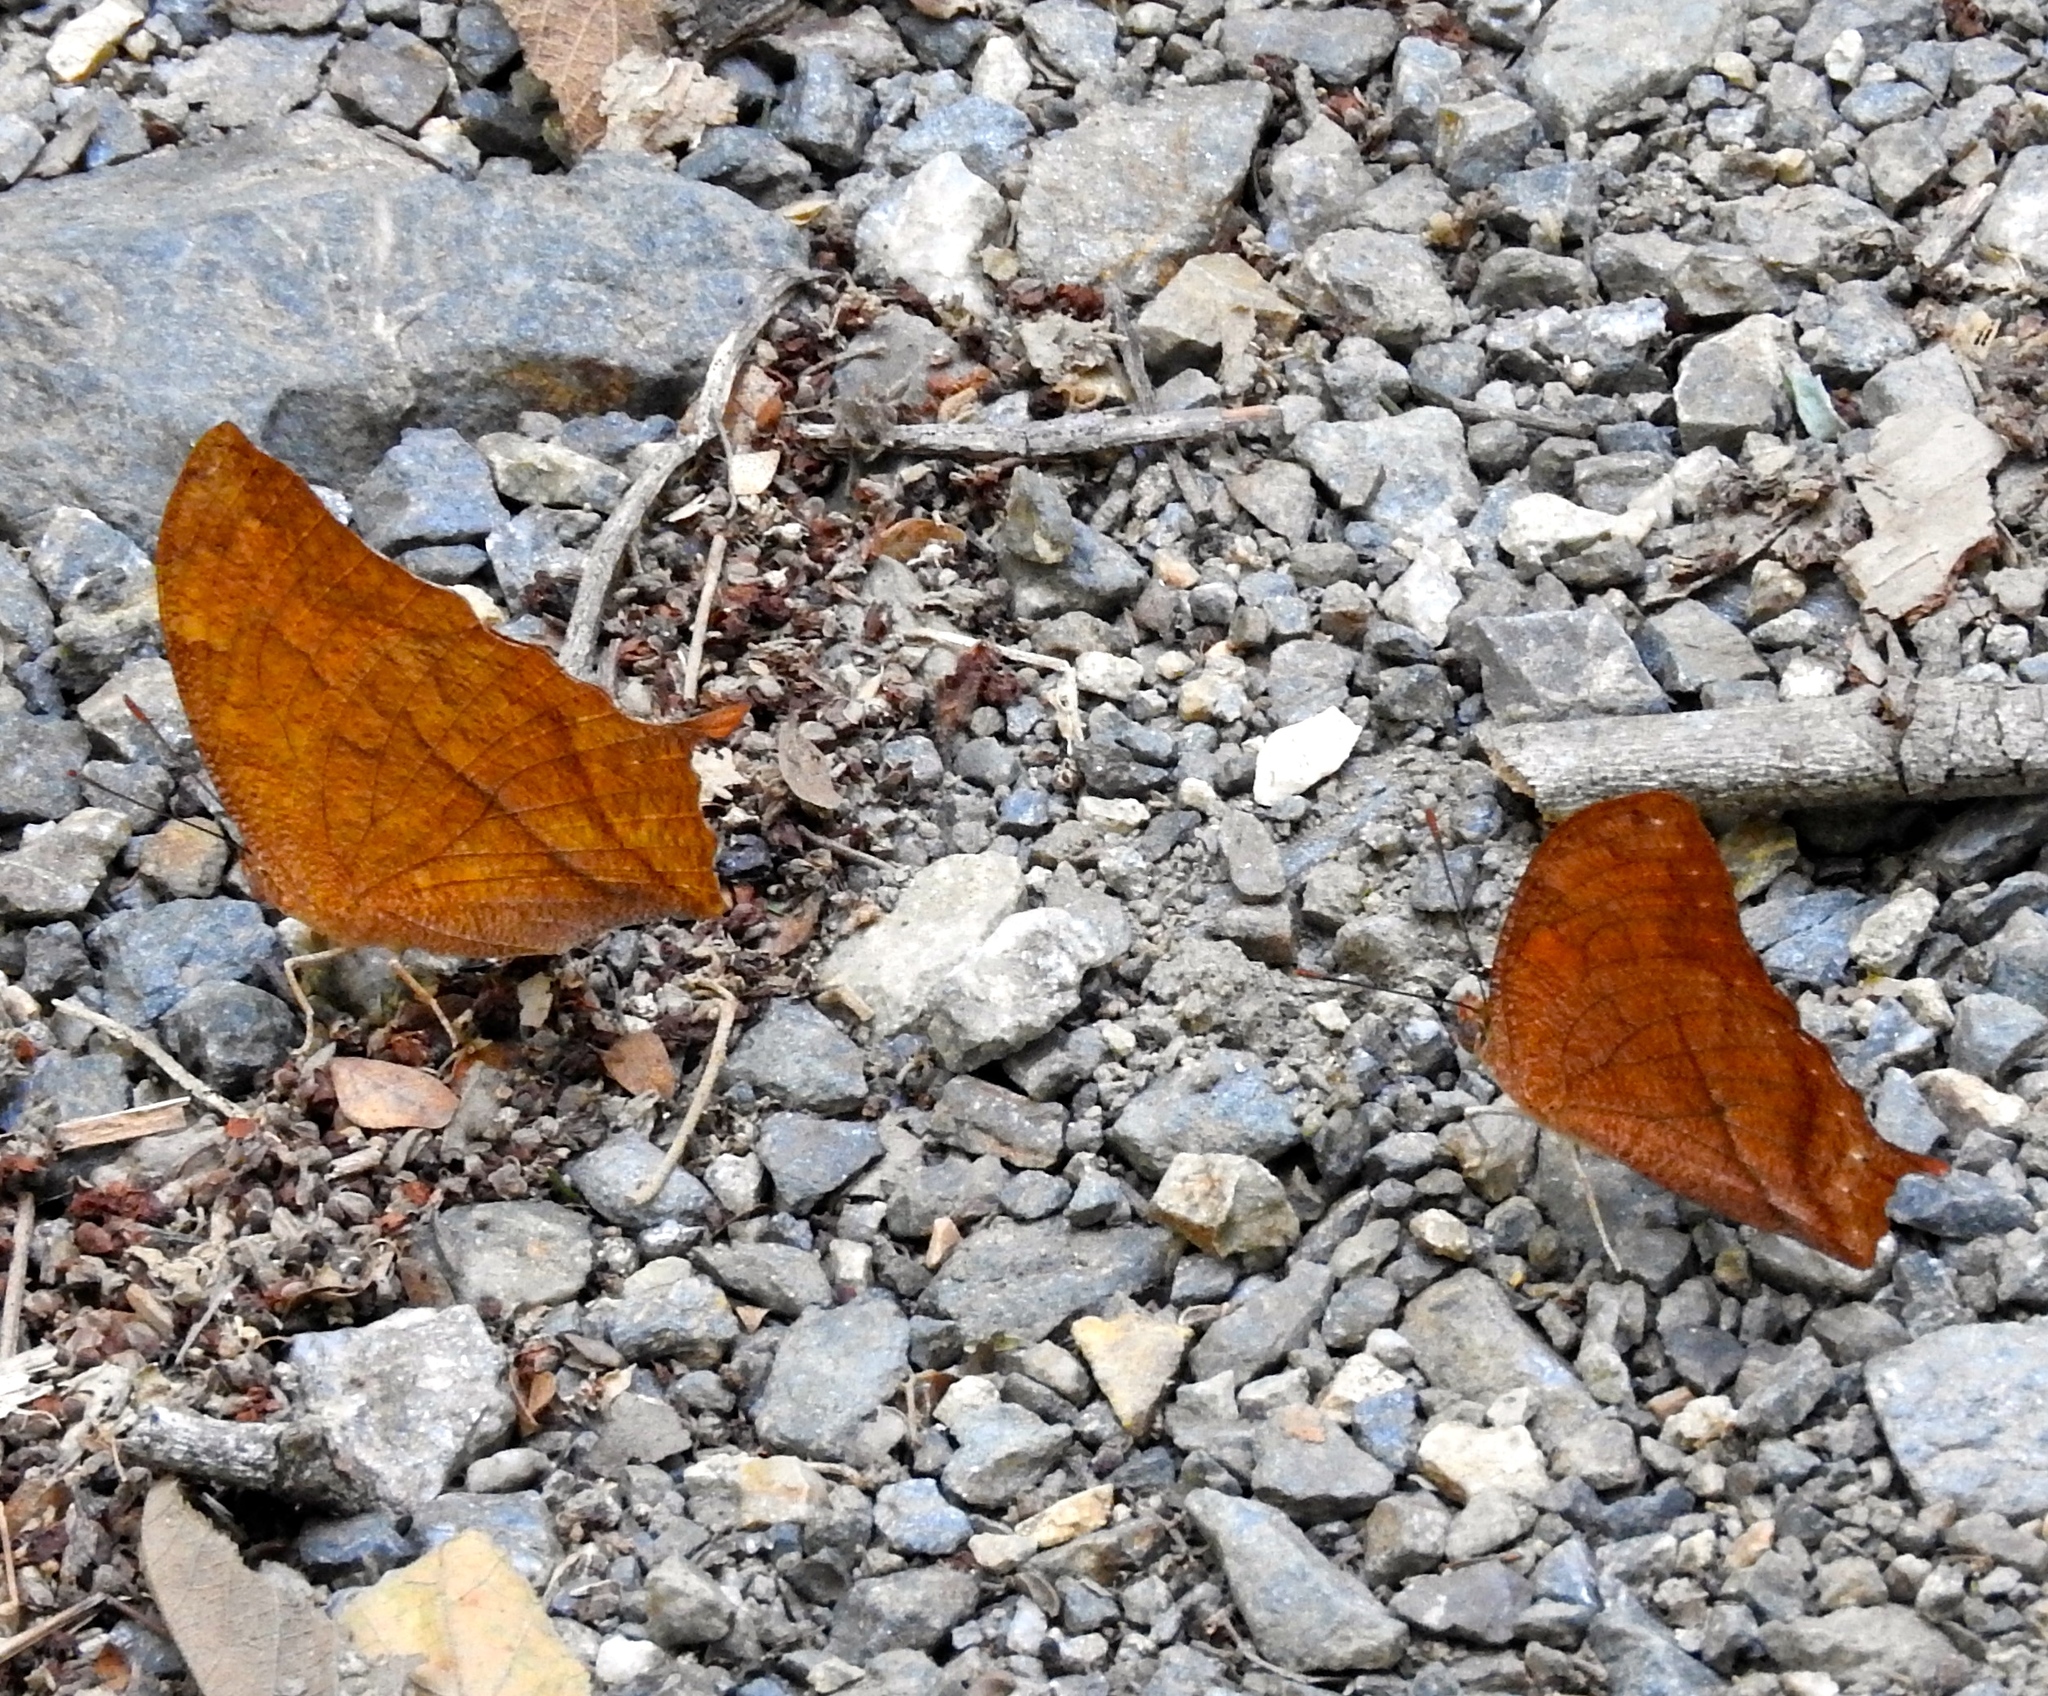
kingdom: Animalia
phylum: Arthropoda
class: Insecta
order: Lepidoptera
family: Nymphalidae
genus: Fountainea
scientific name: Fountainea
